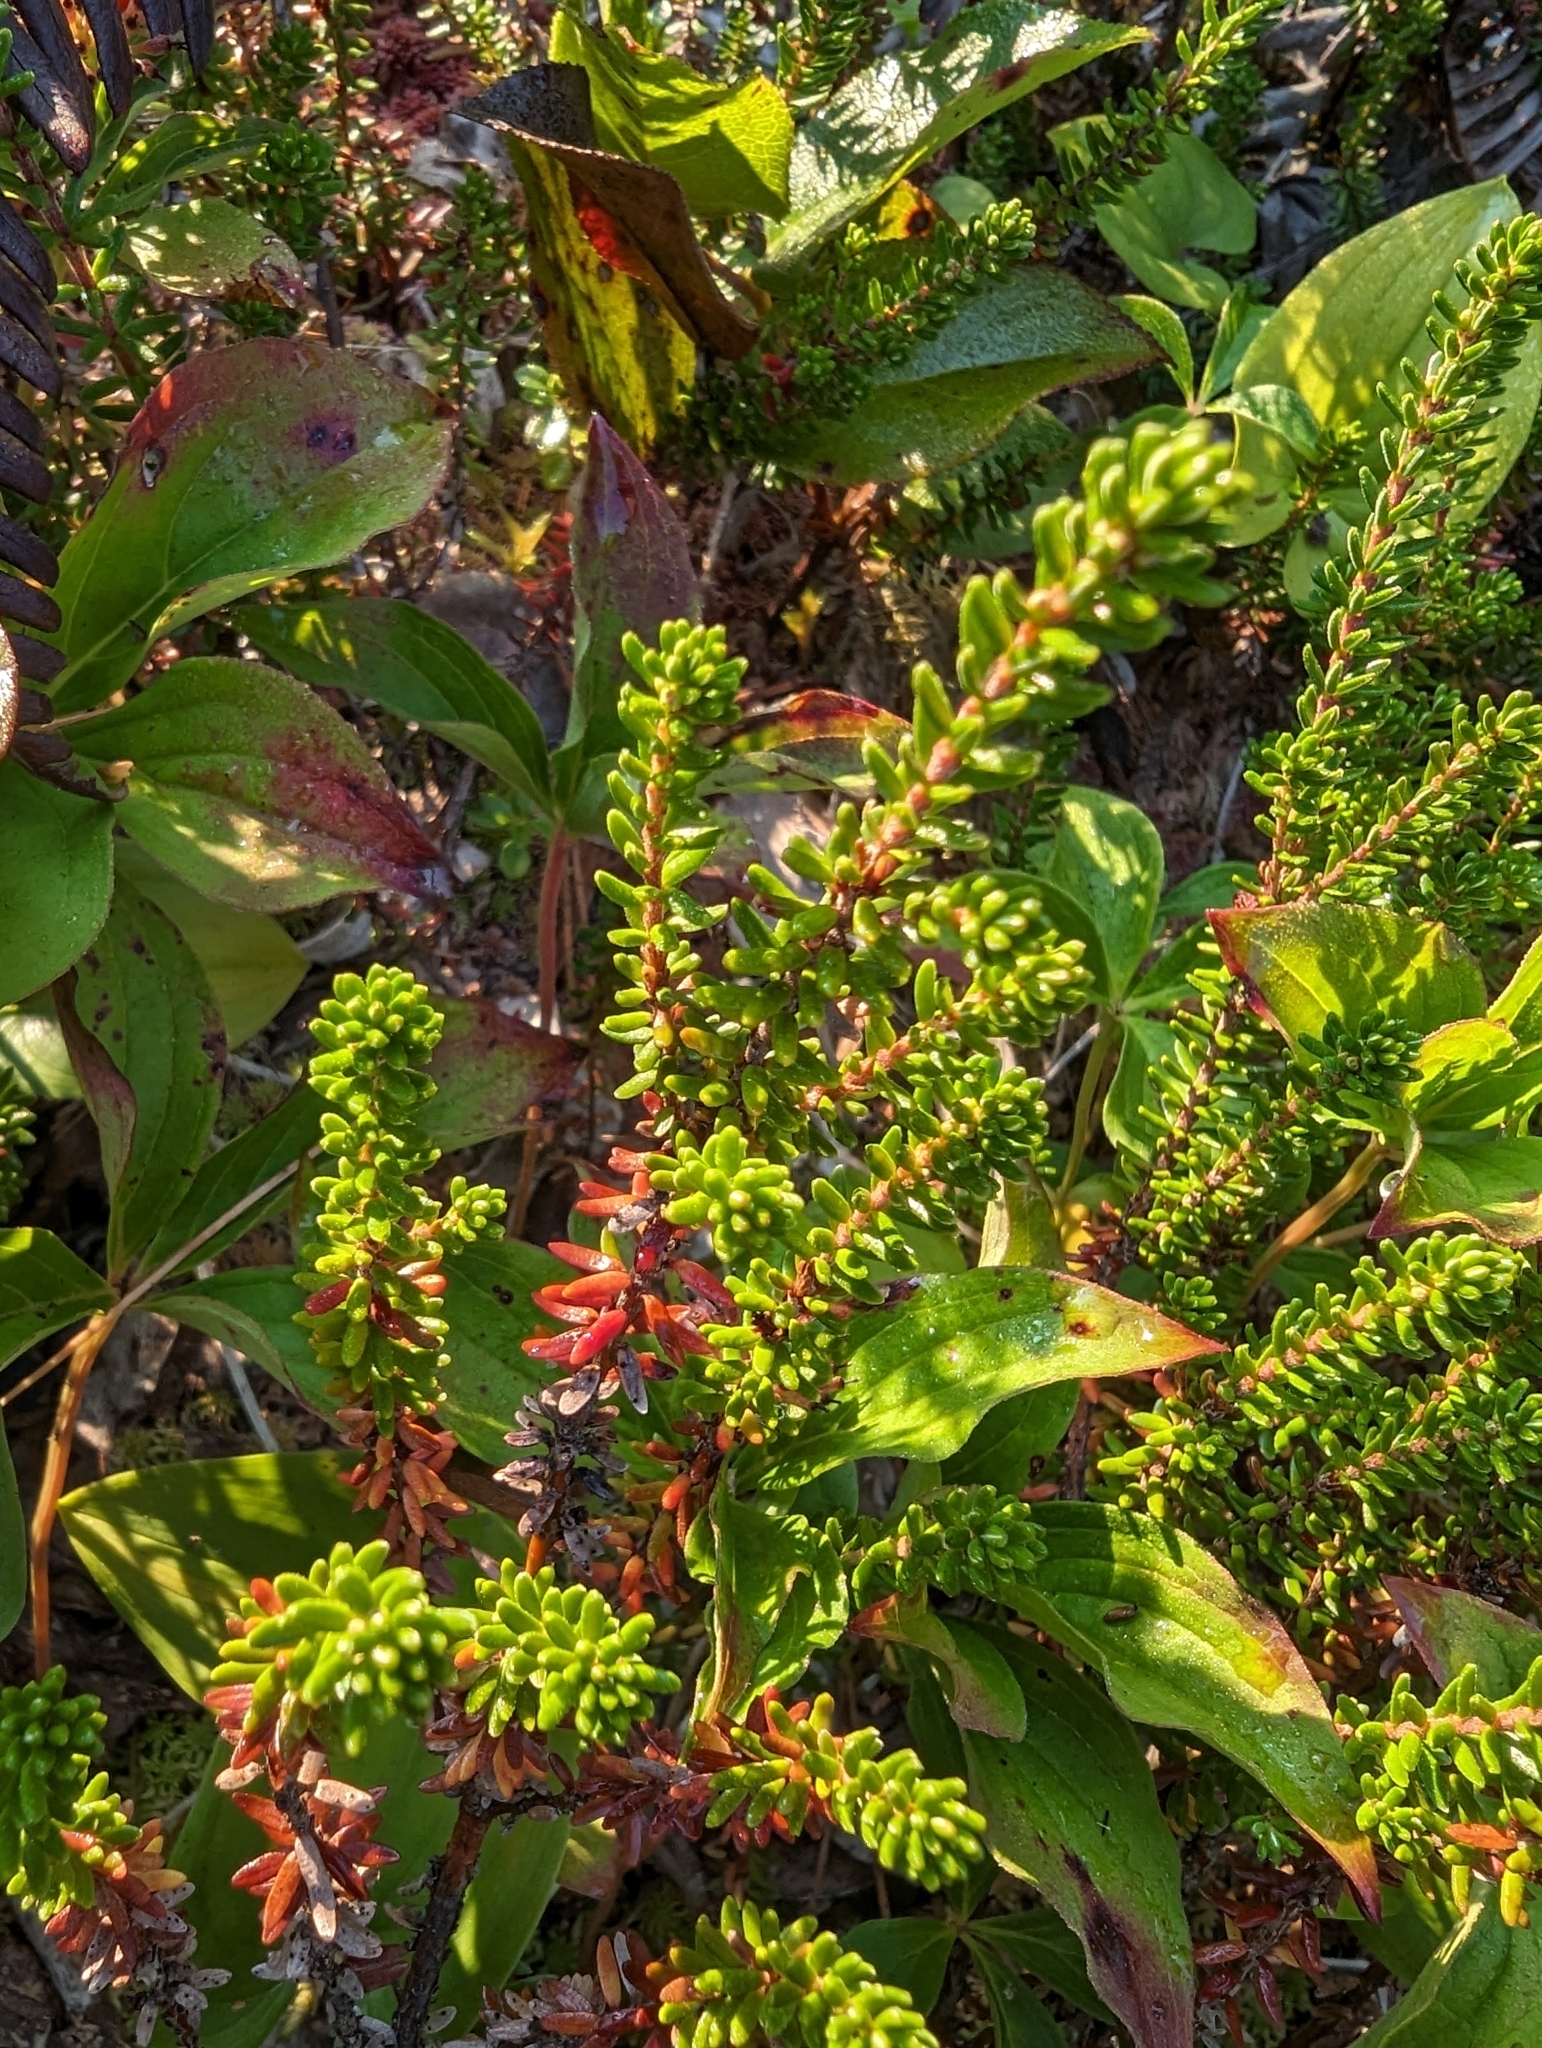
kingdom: Plantae
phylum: Tracheophyta
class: Magnoliopsida
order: Ericales
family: Ericaceae
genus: Empetrum
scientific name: Empetrum nigrum
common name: Black crowberry
